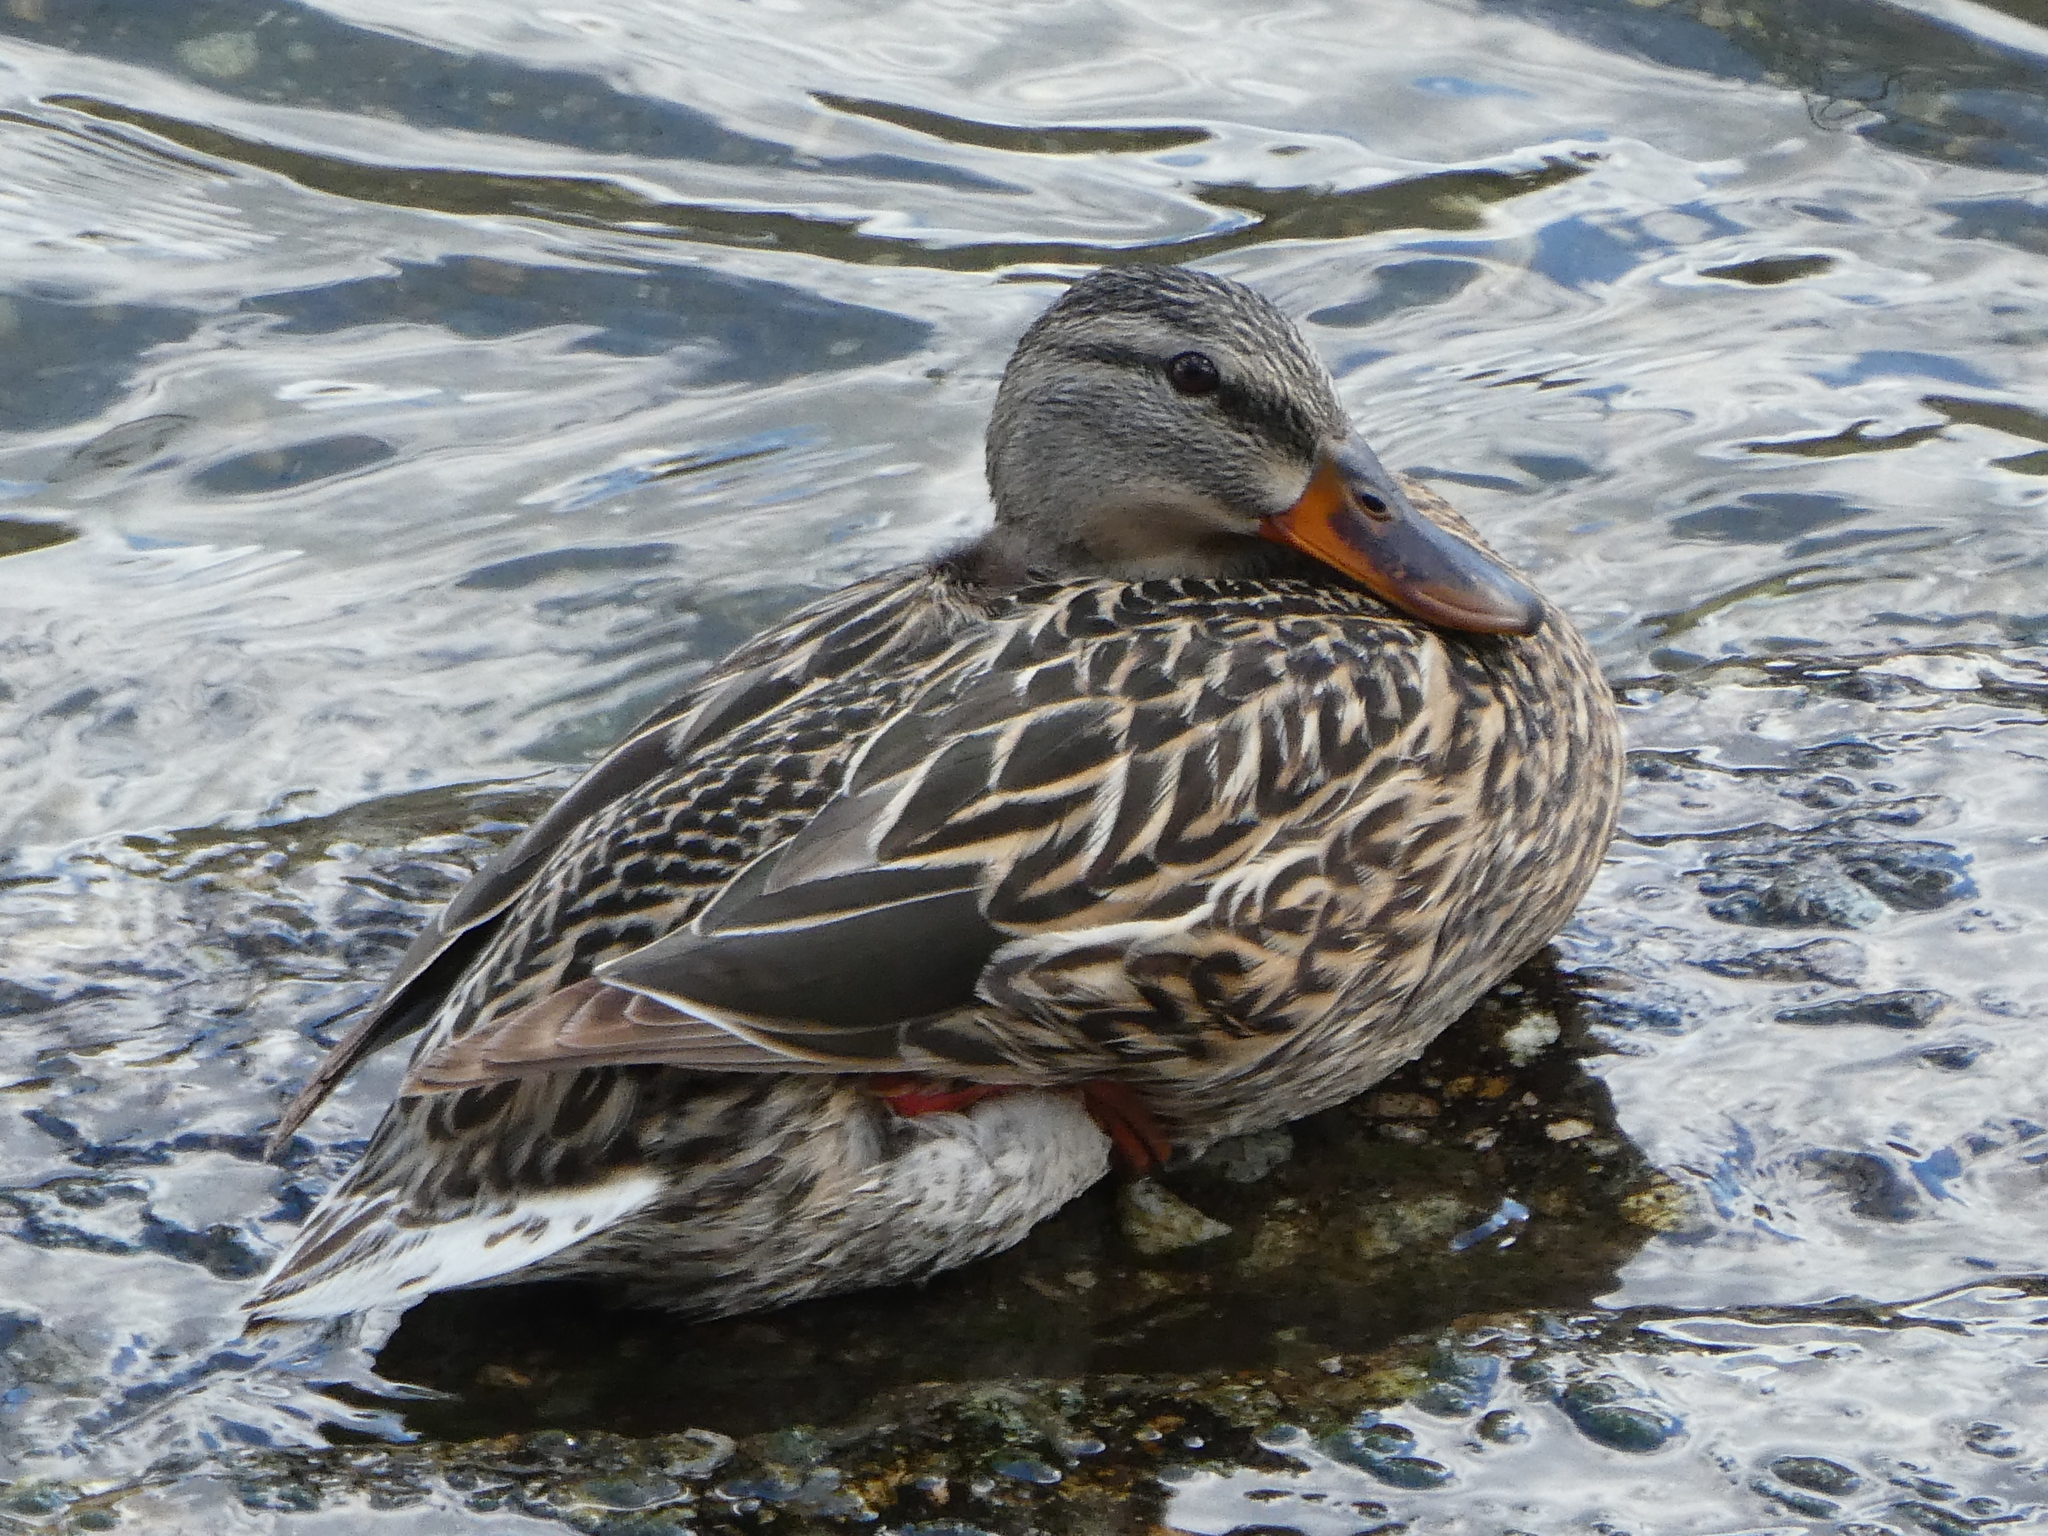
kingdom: Animalia
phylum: Chordata
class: Aves
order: Anseriformes
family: Anatidae
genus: Anas
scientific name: Anas platyrhynchos
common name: Mallard
